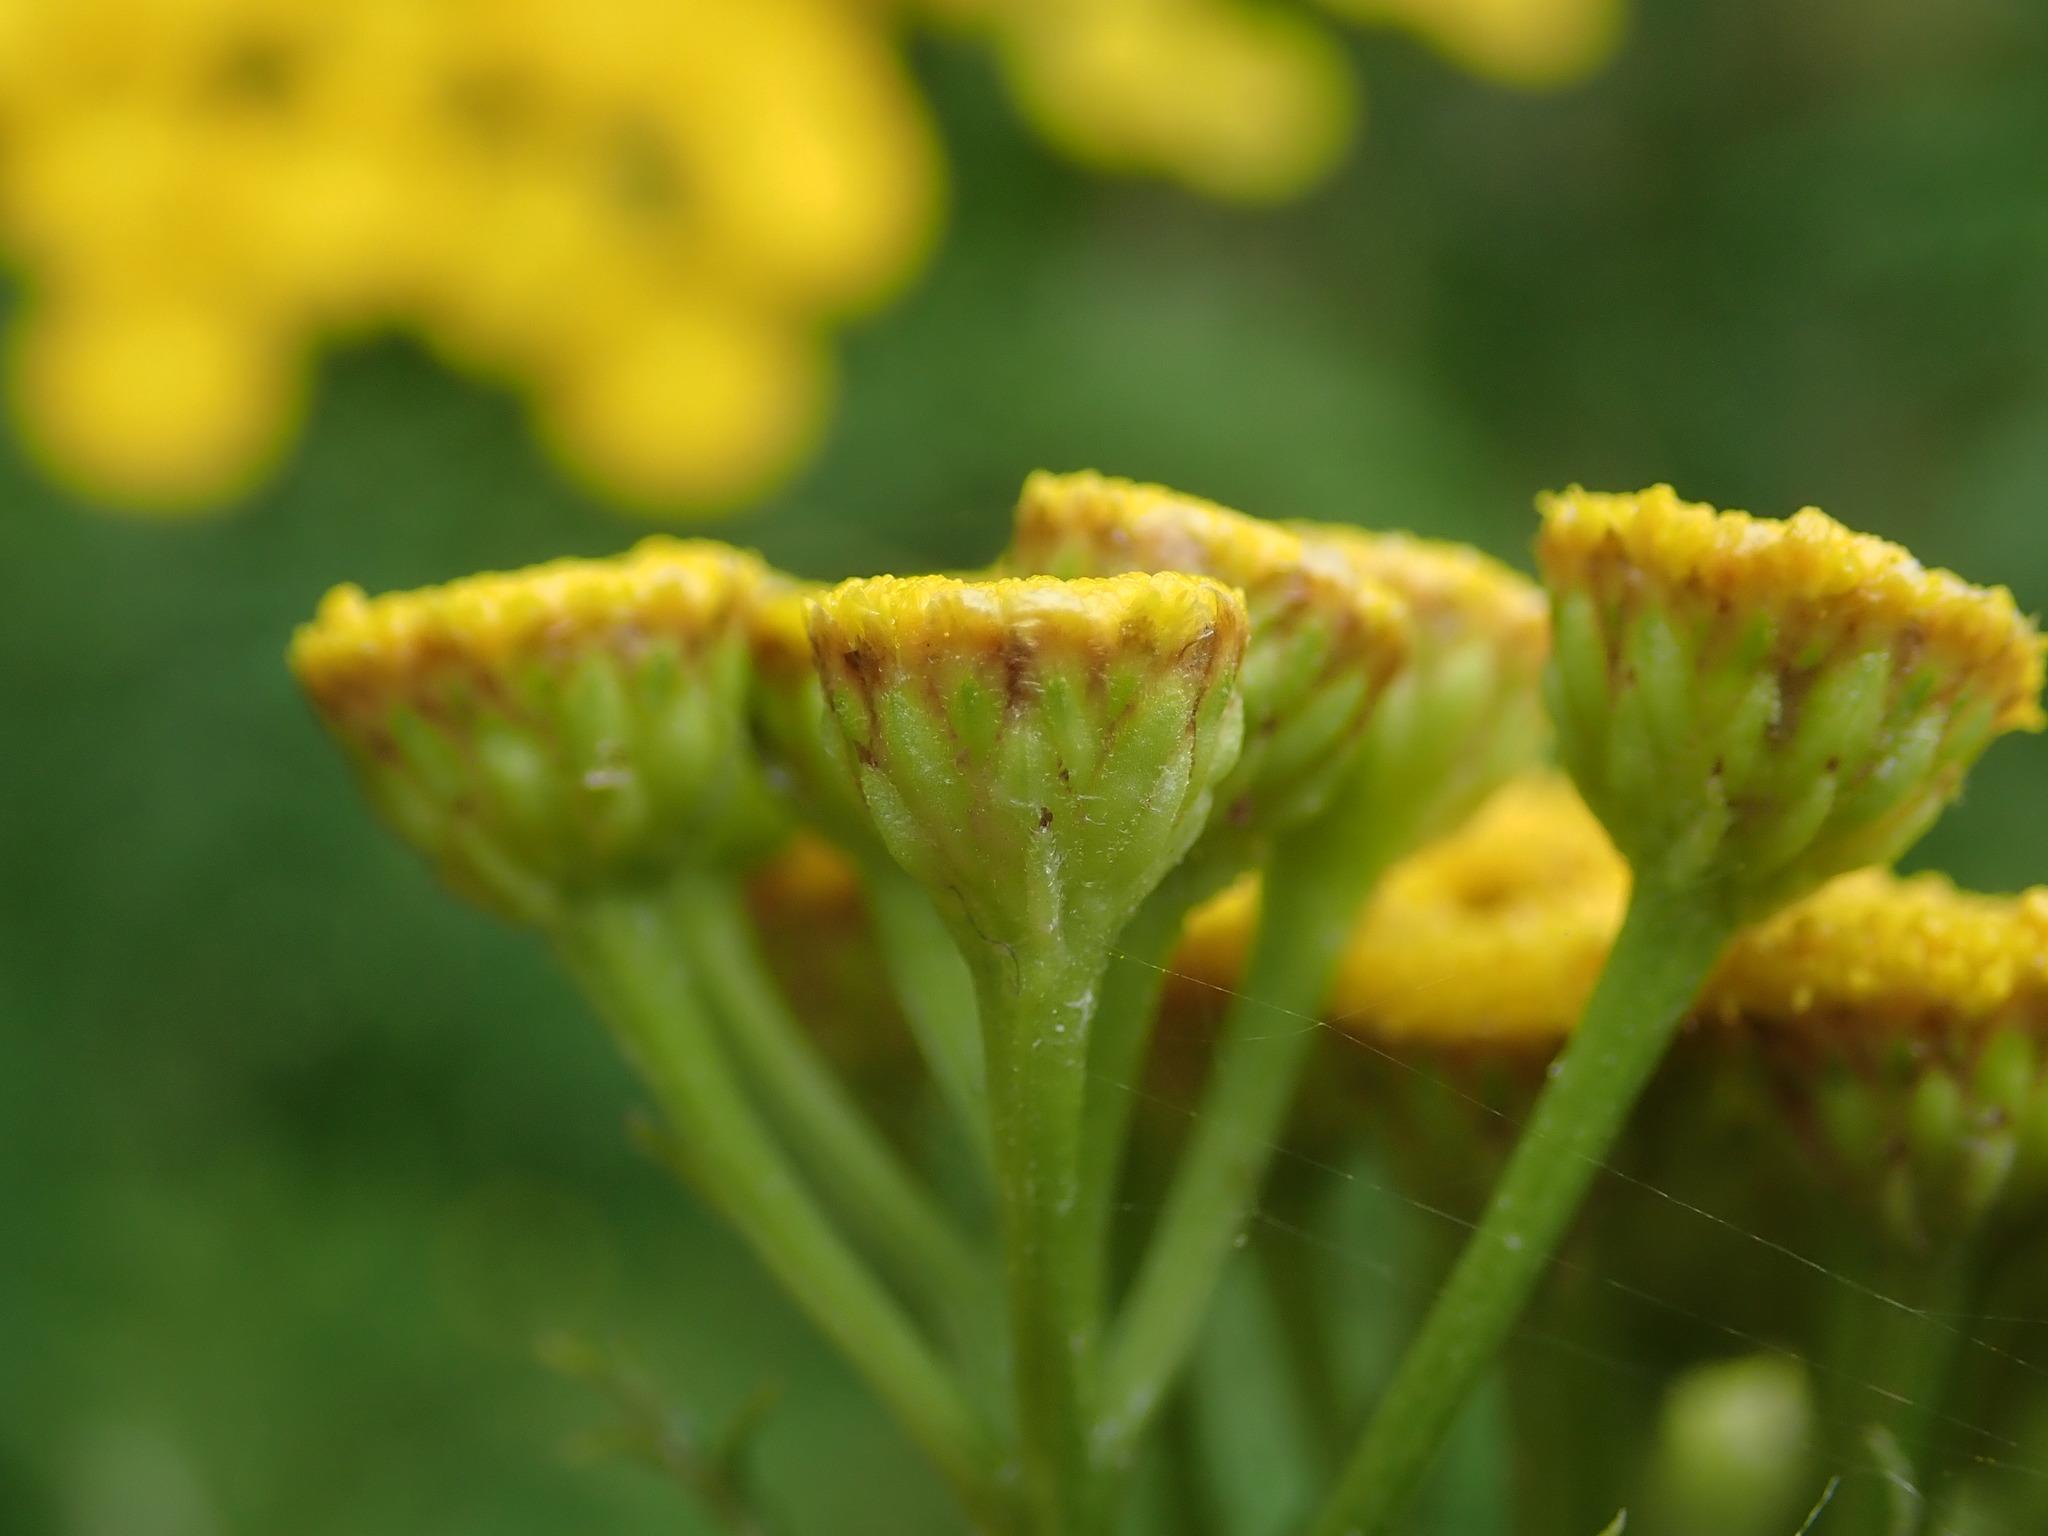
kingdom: Plantae
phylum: Tracheophyta
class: Magnoliopsida
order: Asterales
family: Asteraceae
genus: Tanacetum
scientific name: Tanacetum vulgare
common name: Common tansy
